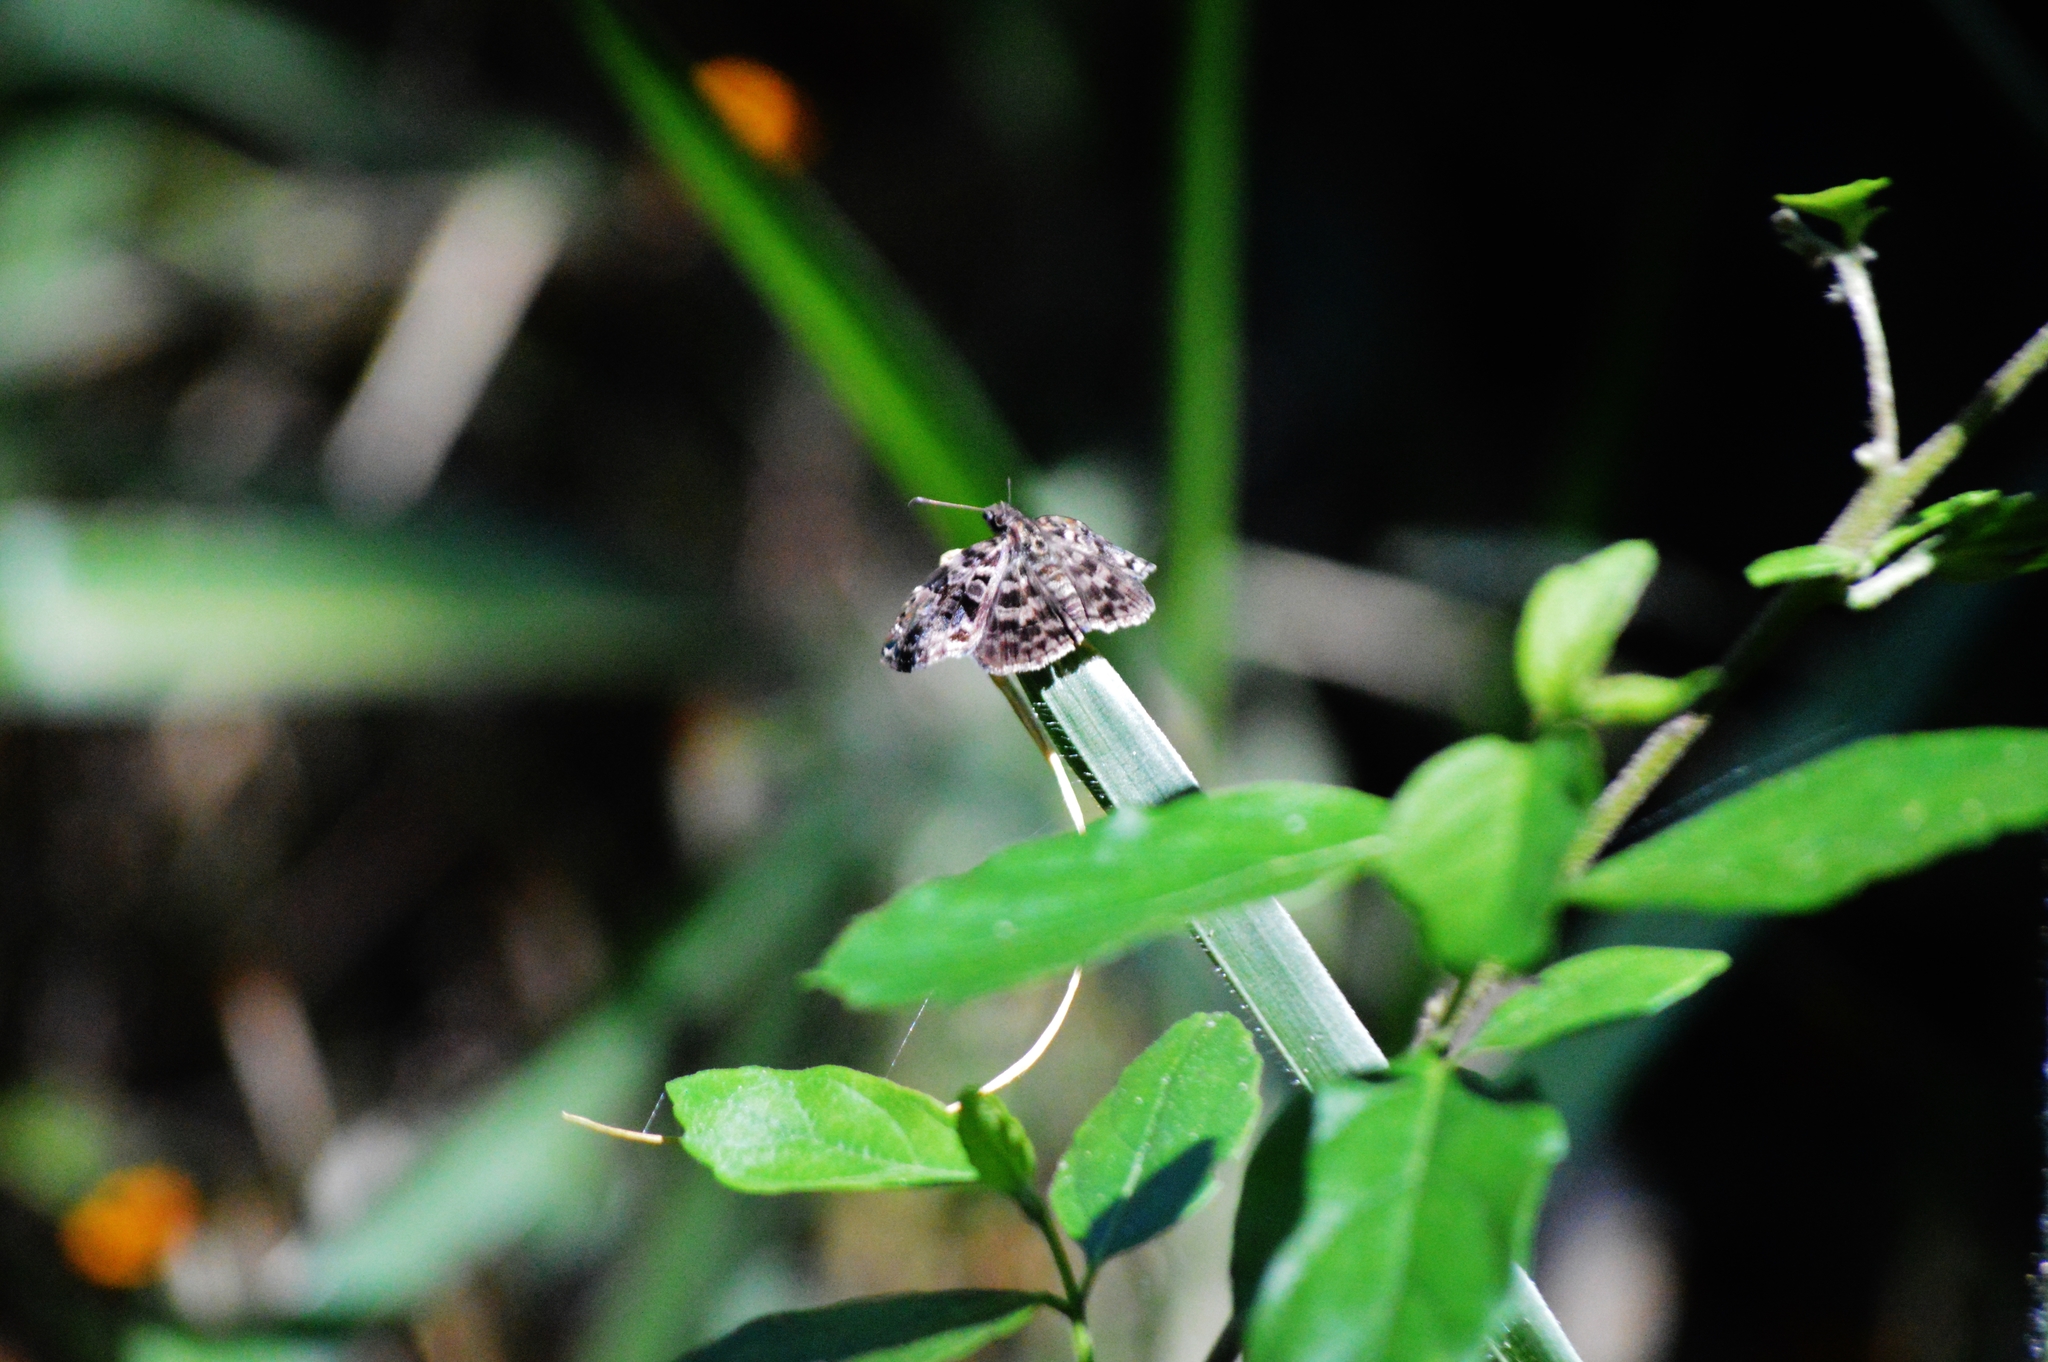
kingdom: Animalia
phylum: Arthropoda
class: Insecta
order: Lepidoptera
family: Hesperiidae
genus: Gorgythion
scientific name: Gorgythion begga
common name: Variegated skipper
